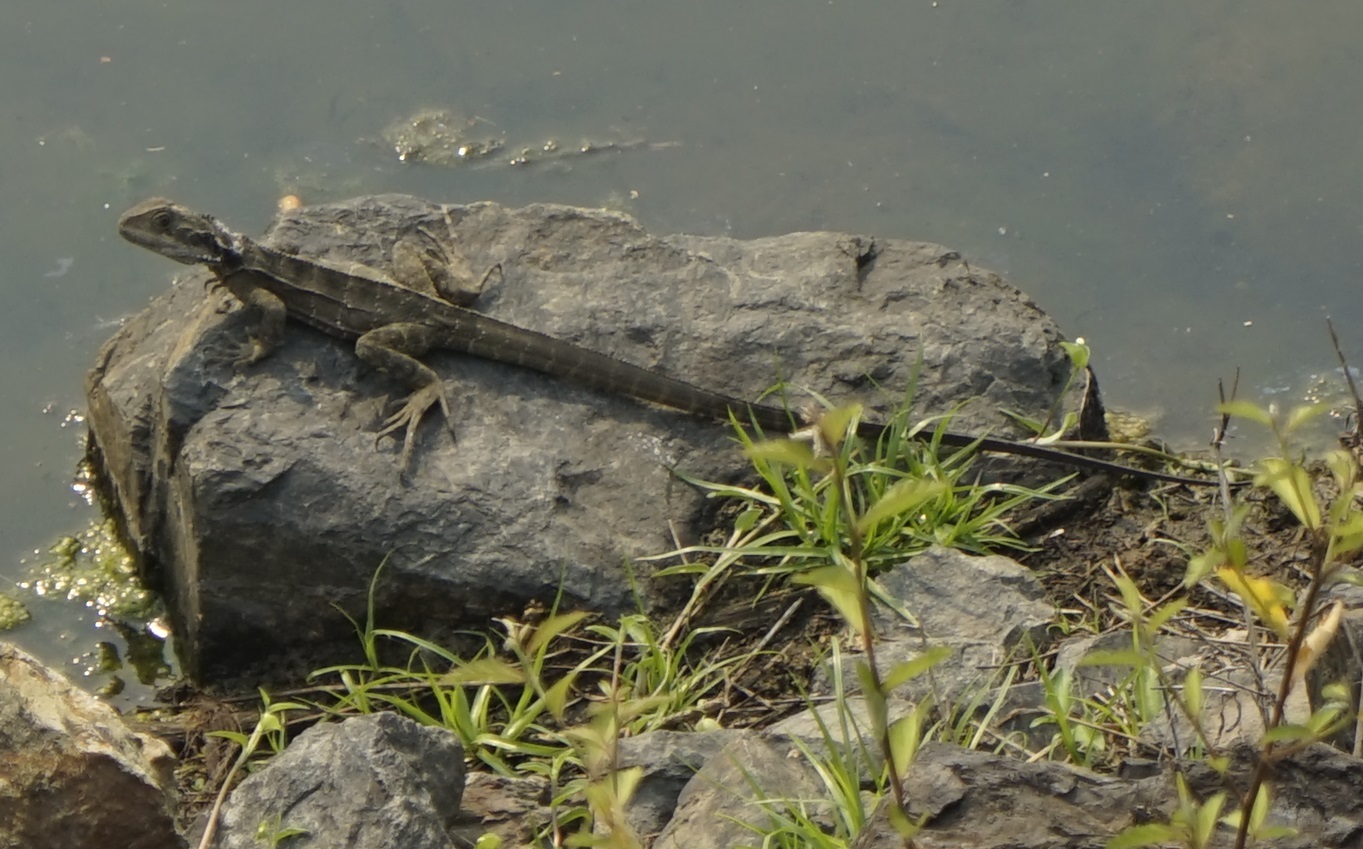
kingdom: Animalia
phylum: Chordata
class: Squamata
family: Agamidae
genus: Intellagama
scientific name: Intellagama lesueurii
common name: Eastern water dragon
